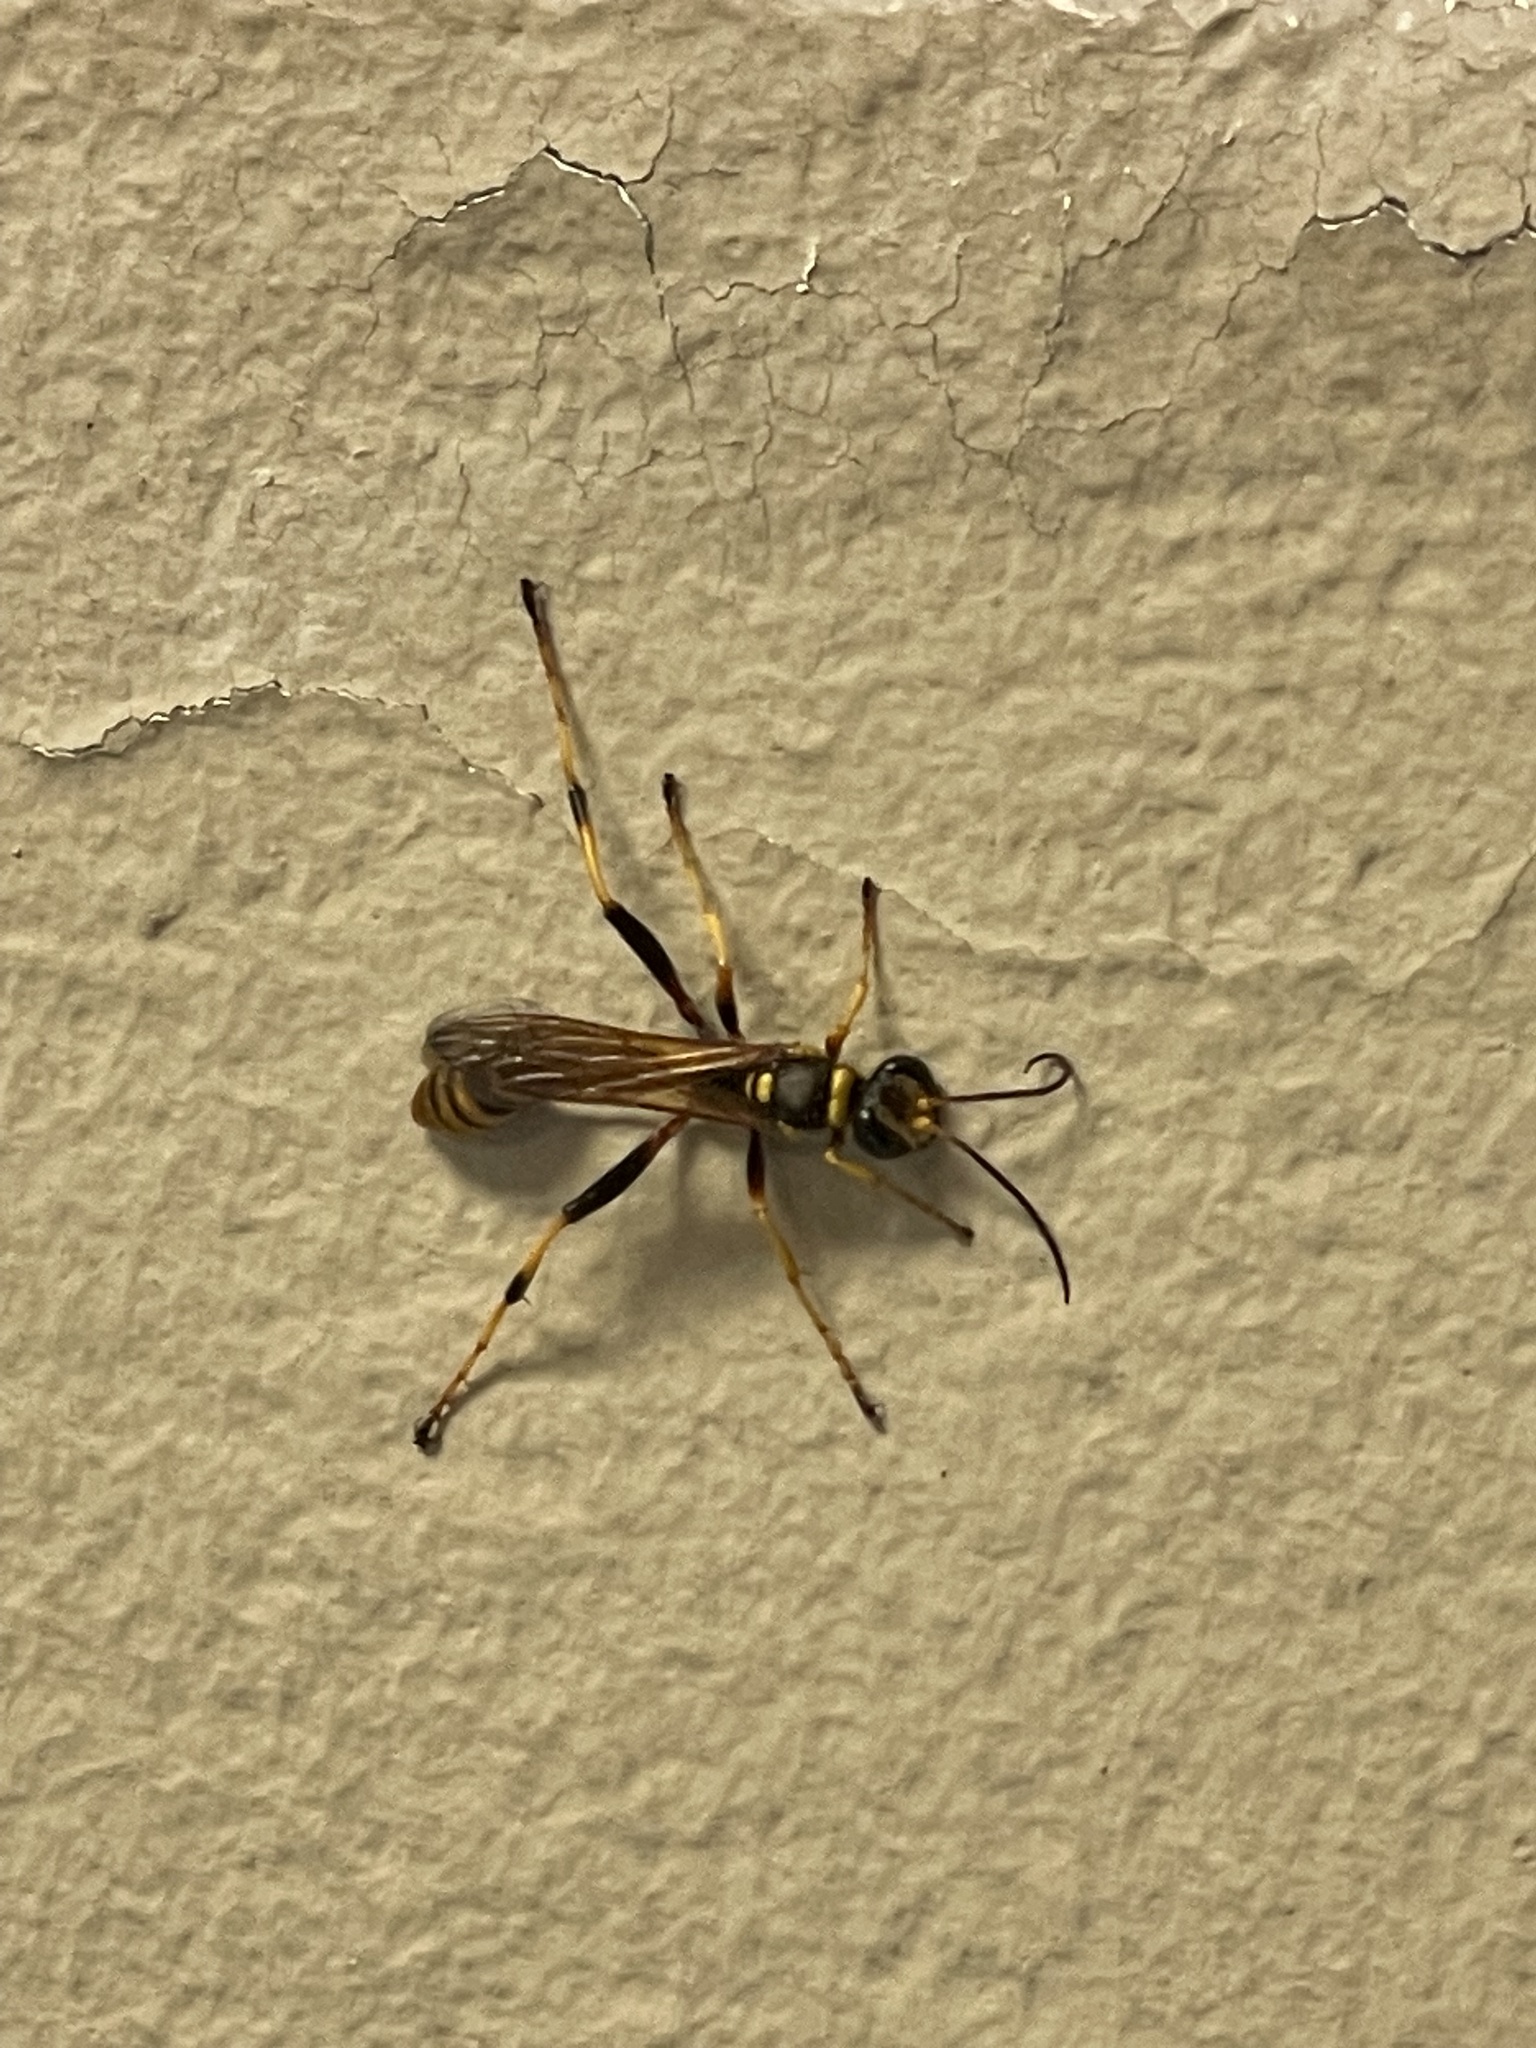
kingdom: Animalia
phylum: Arthropoda
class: Insecta
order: Hymenoptera
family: Sphecidae
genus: Sceliphron
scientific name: Sceliphron jamaicense
